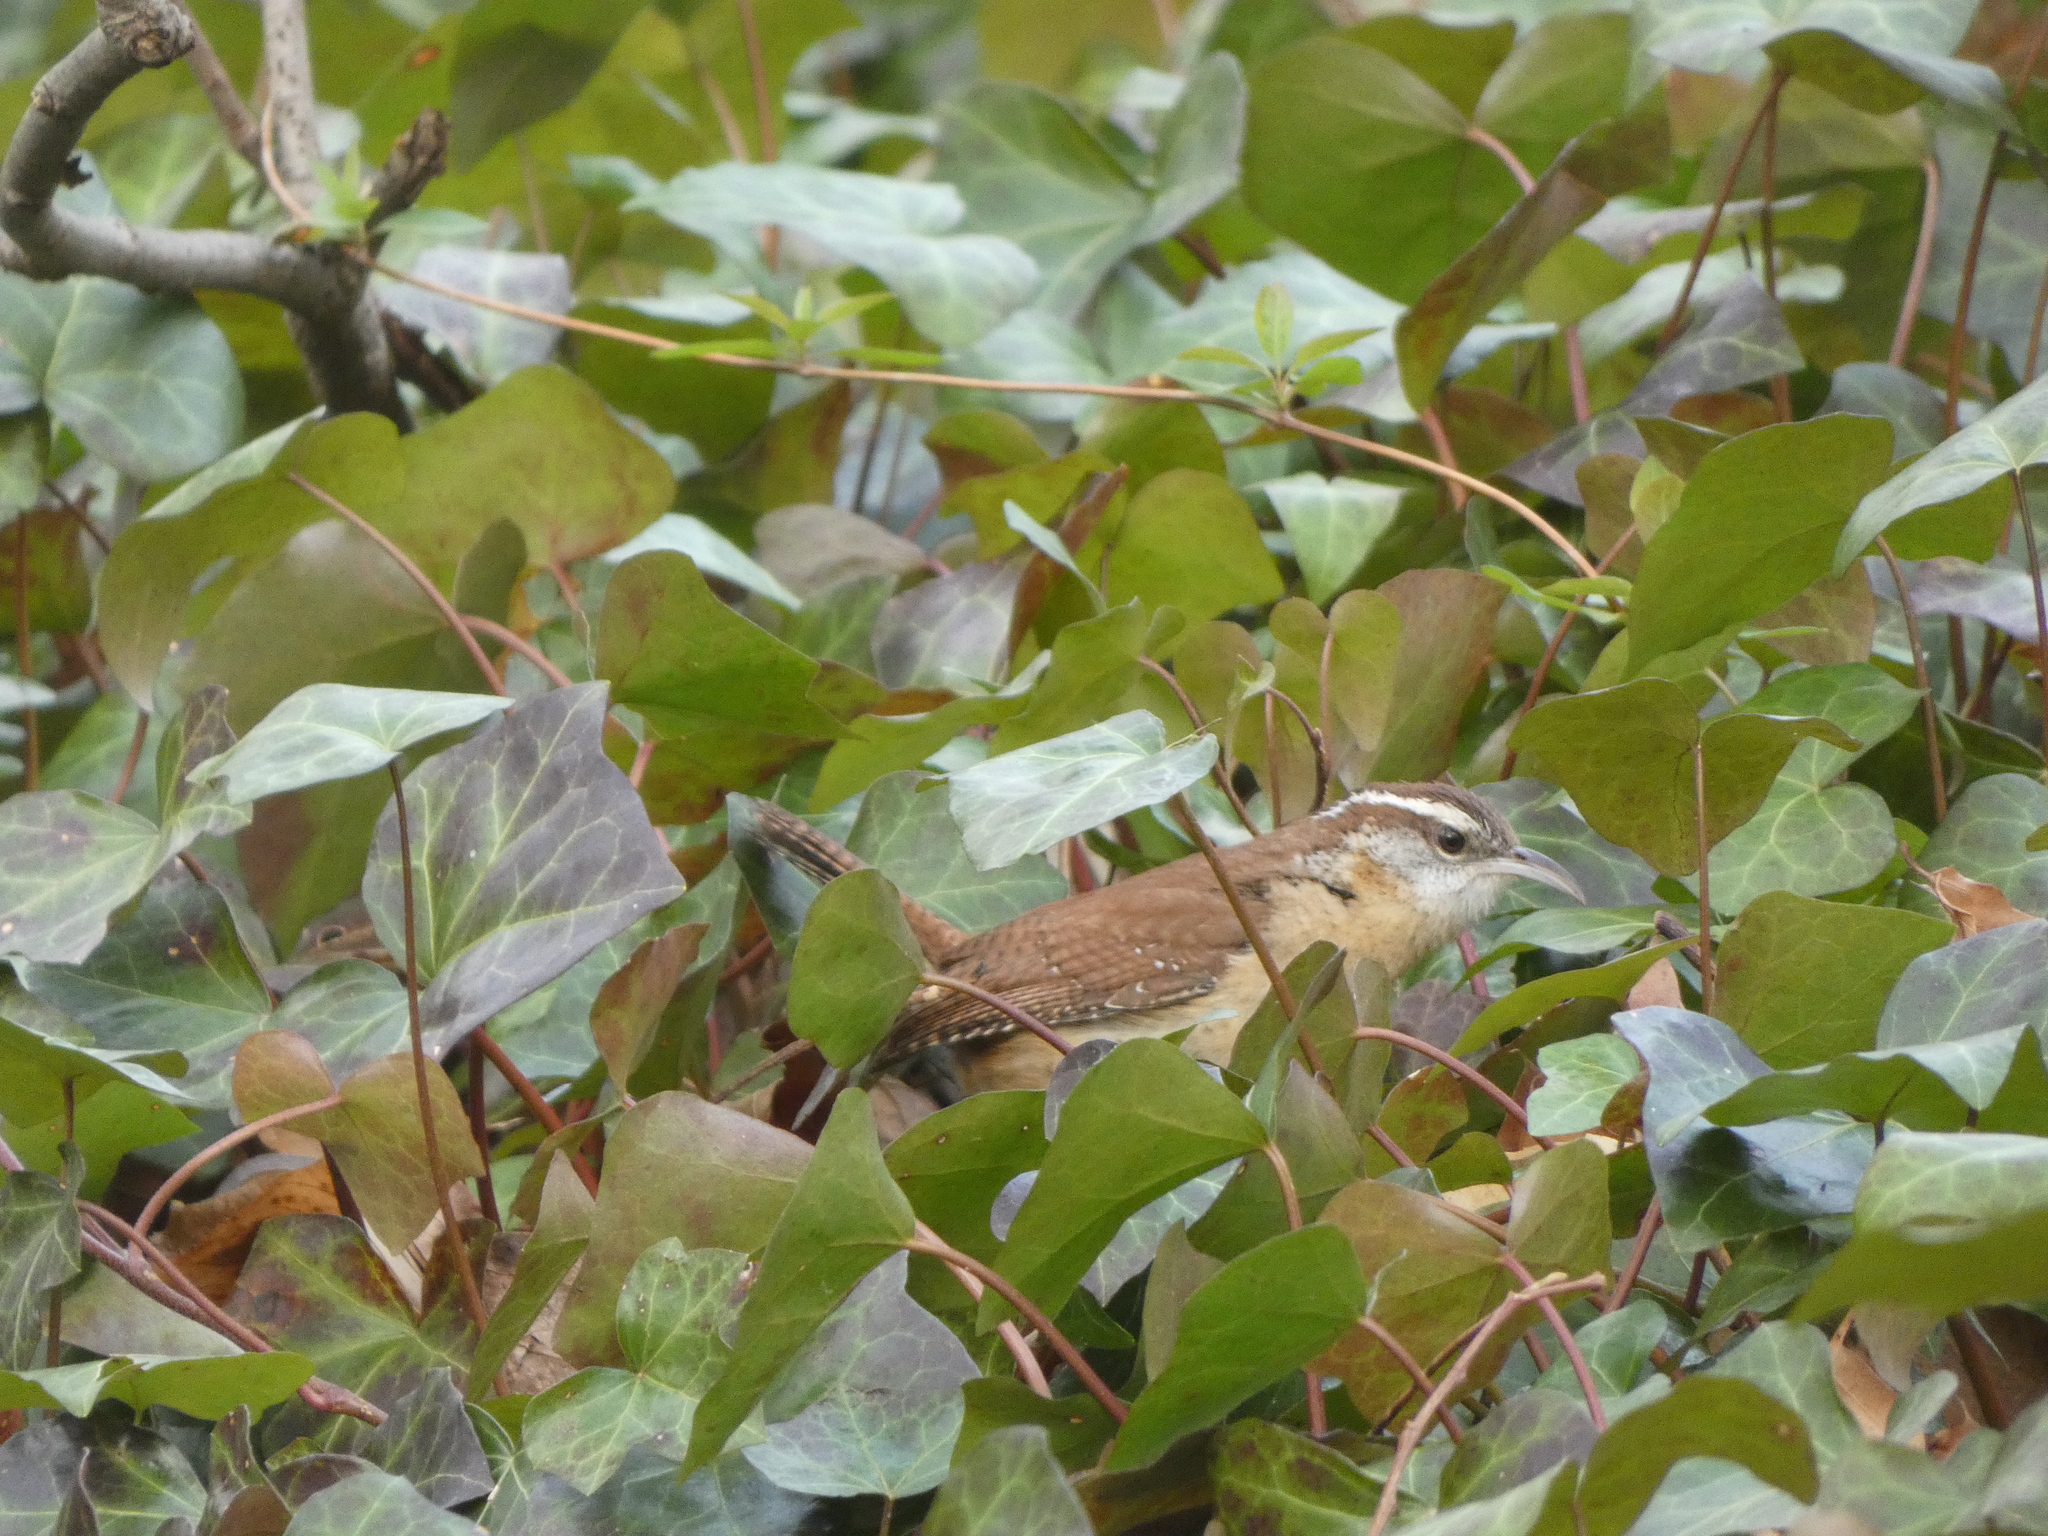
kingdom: Animalia
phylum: Chordata
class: Aves
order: Passeriformes
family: Troglodytidae
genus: Thryothorus
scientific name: Thryothorus ludovicianus
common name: Carolina wren
